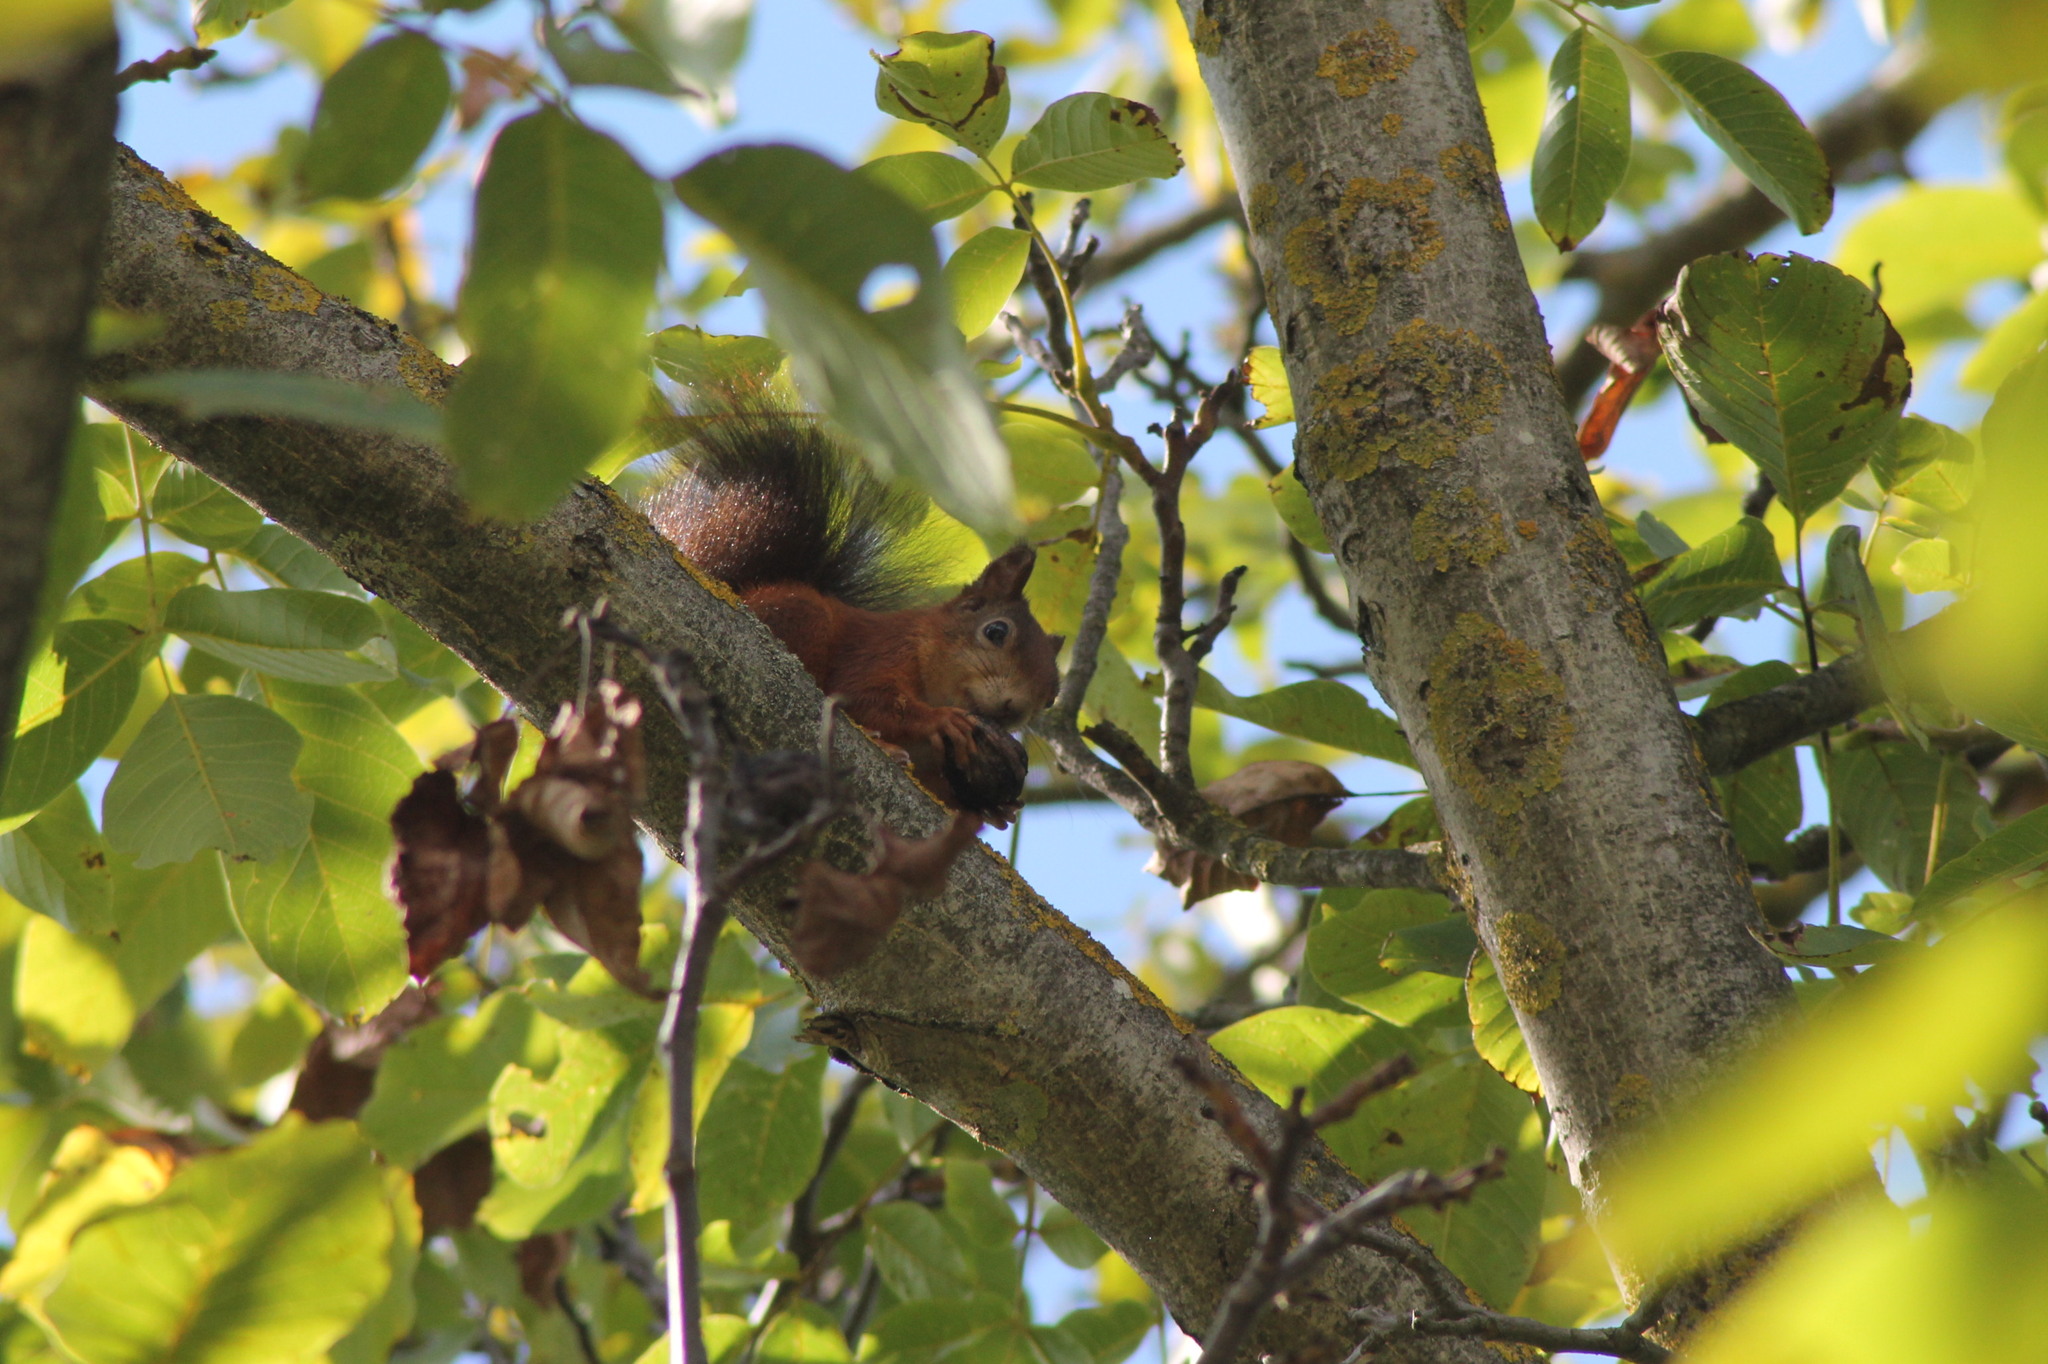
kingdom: Animalia
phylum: Chordata
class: Mammalia
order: Rodentia
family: Sciuridae
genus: Sciurus
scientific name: Sciurus vulgaris
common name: Eurasian red squirrel
